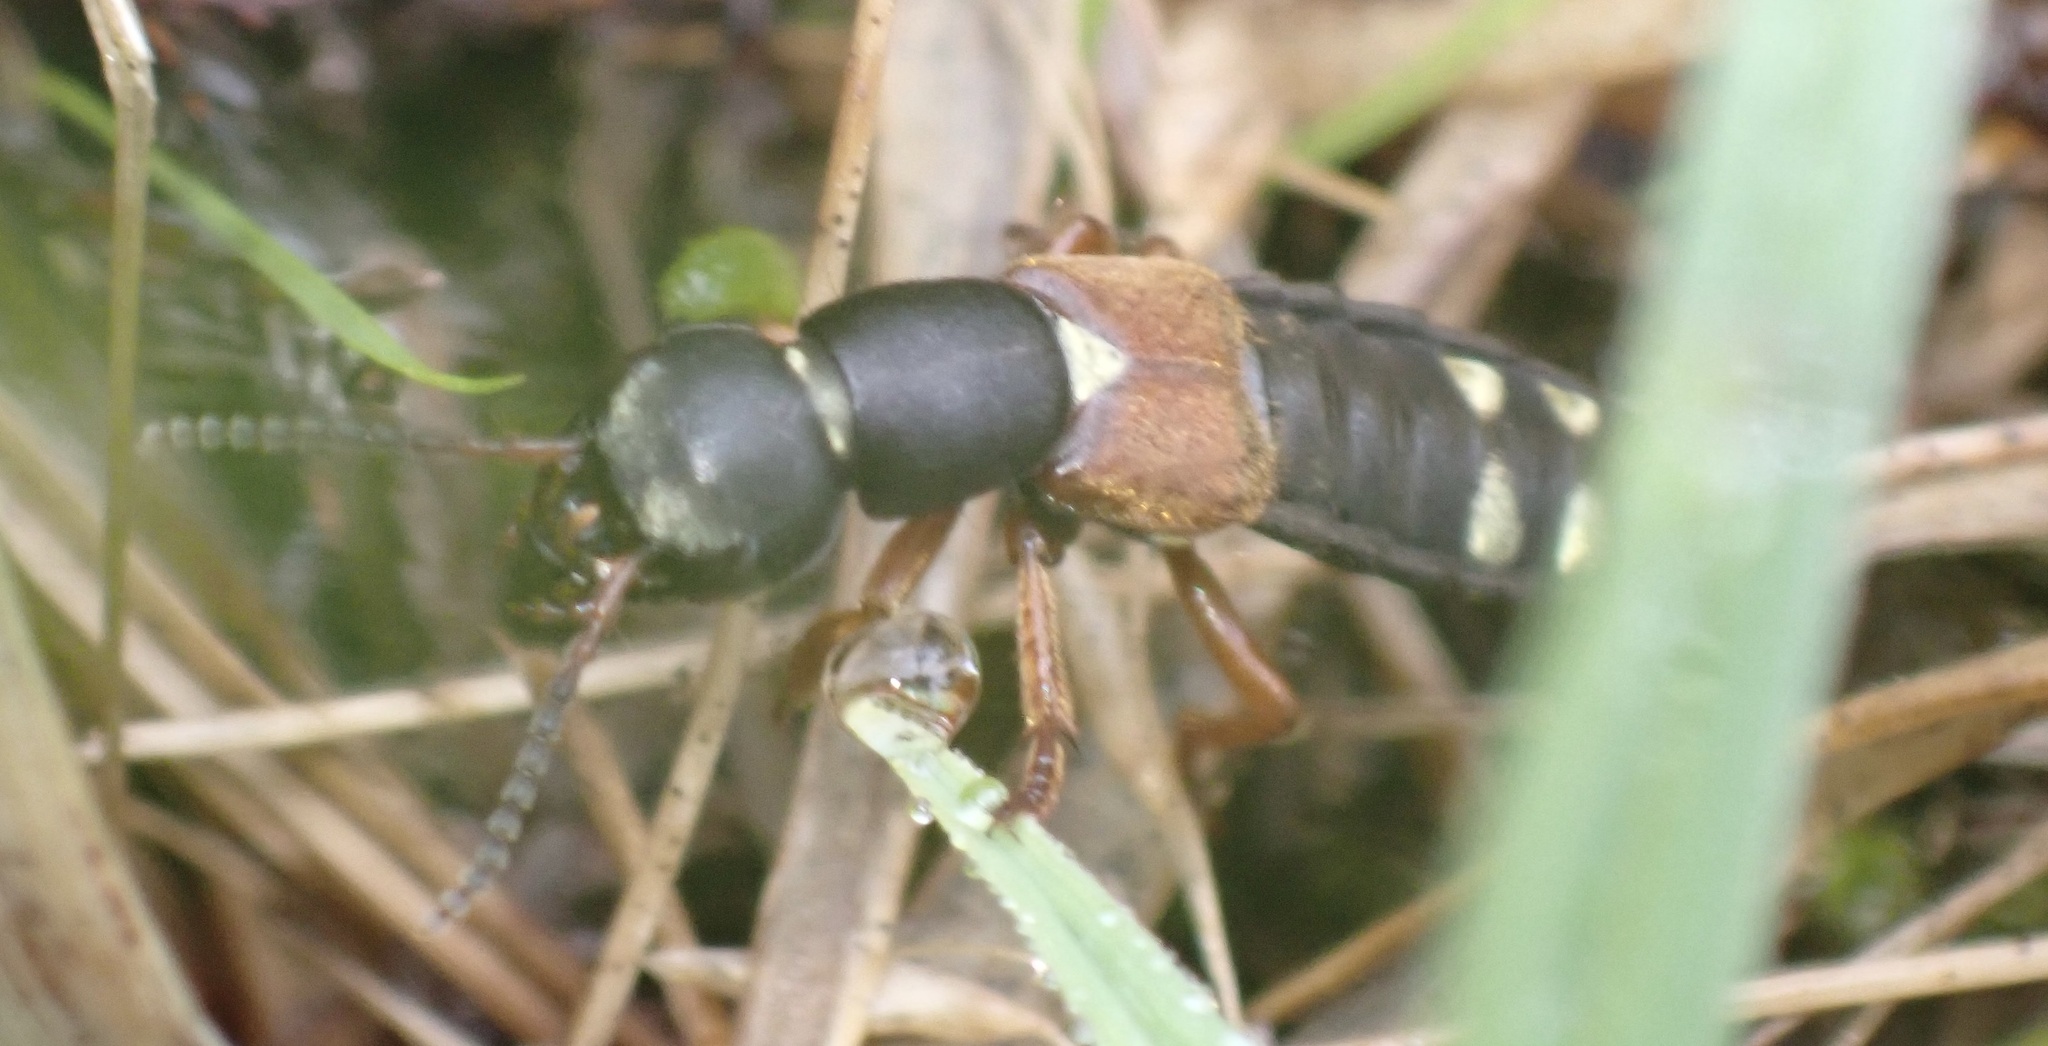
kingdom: Animalia
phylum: Arthropoda
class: Insecta
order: Coleoptera
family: Staphylinidae
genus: Staphylinus
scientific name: Staphylinus erythropterus
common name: Staph beetle
